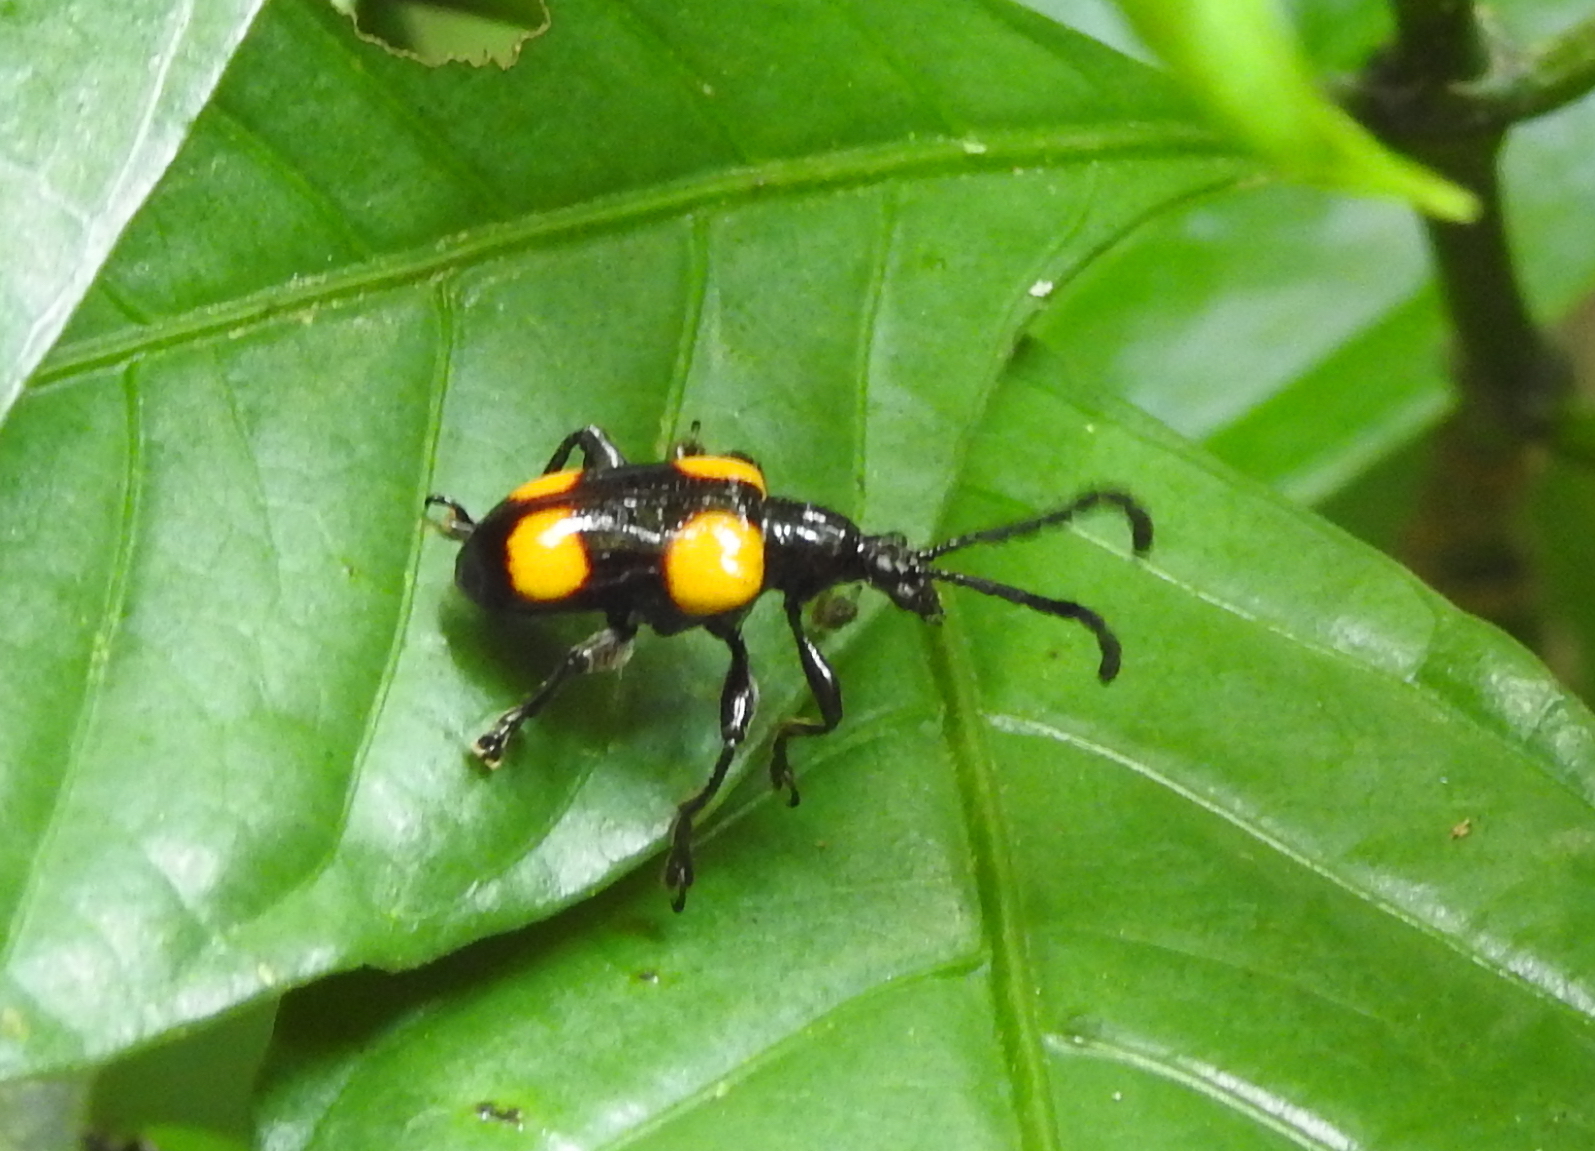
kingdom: Animalia
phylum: Arthropoda
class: Insecta
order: Coleoptera
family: Chrysomelidae
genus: Lilioceris
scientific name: Lilioceris
